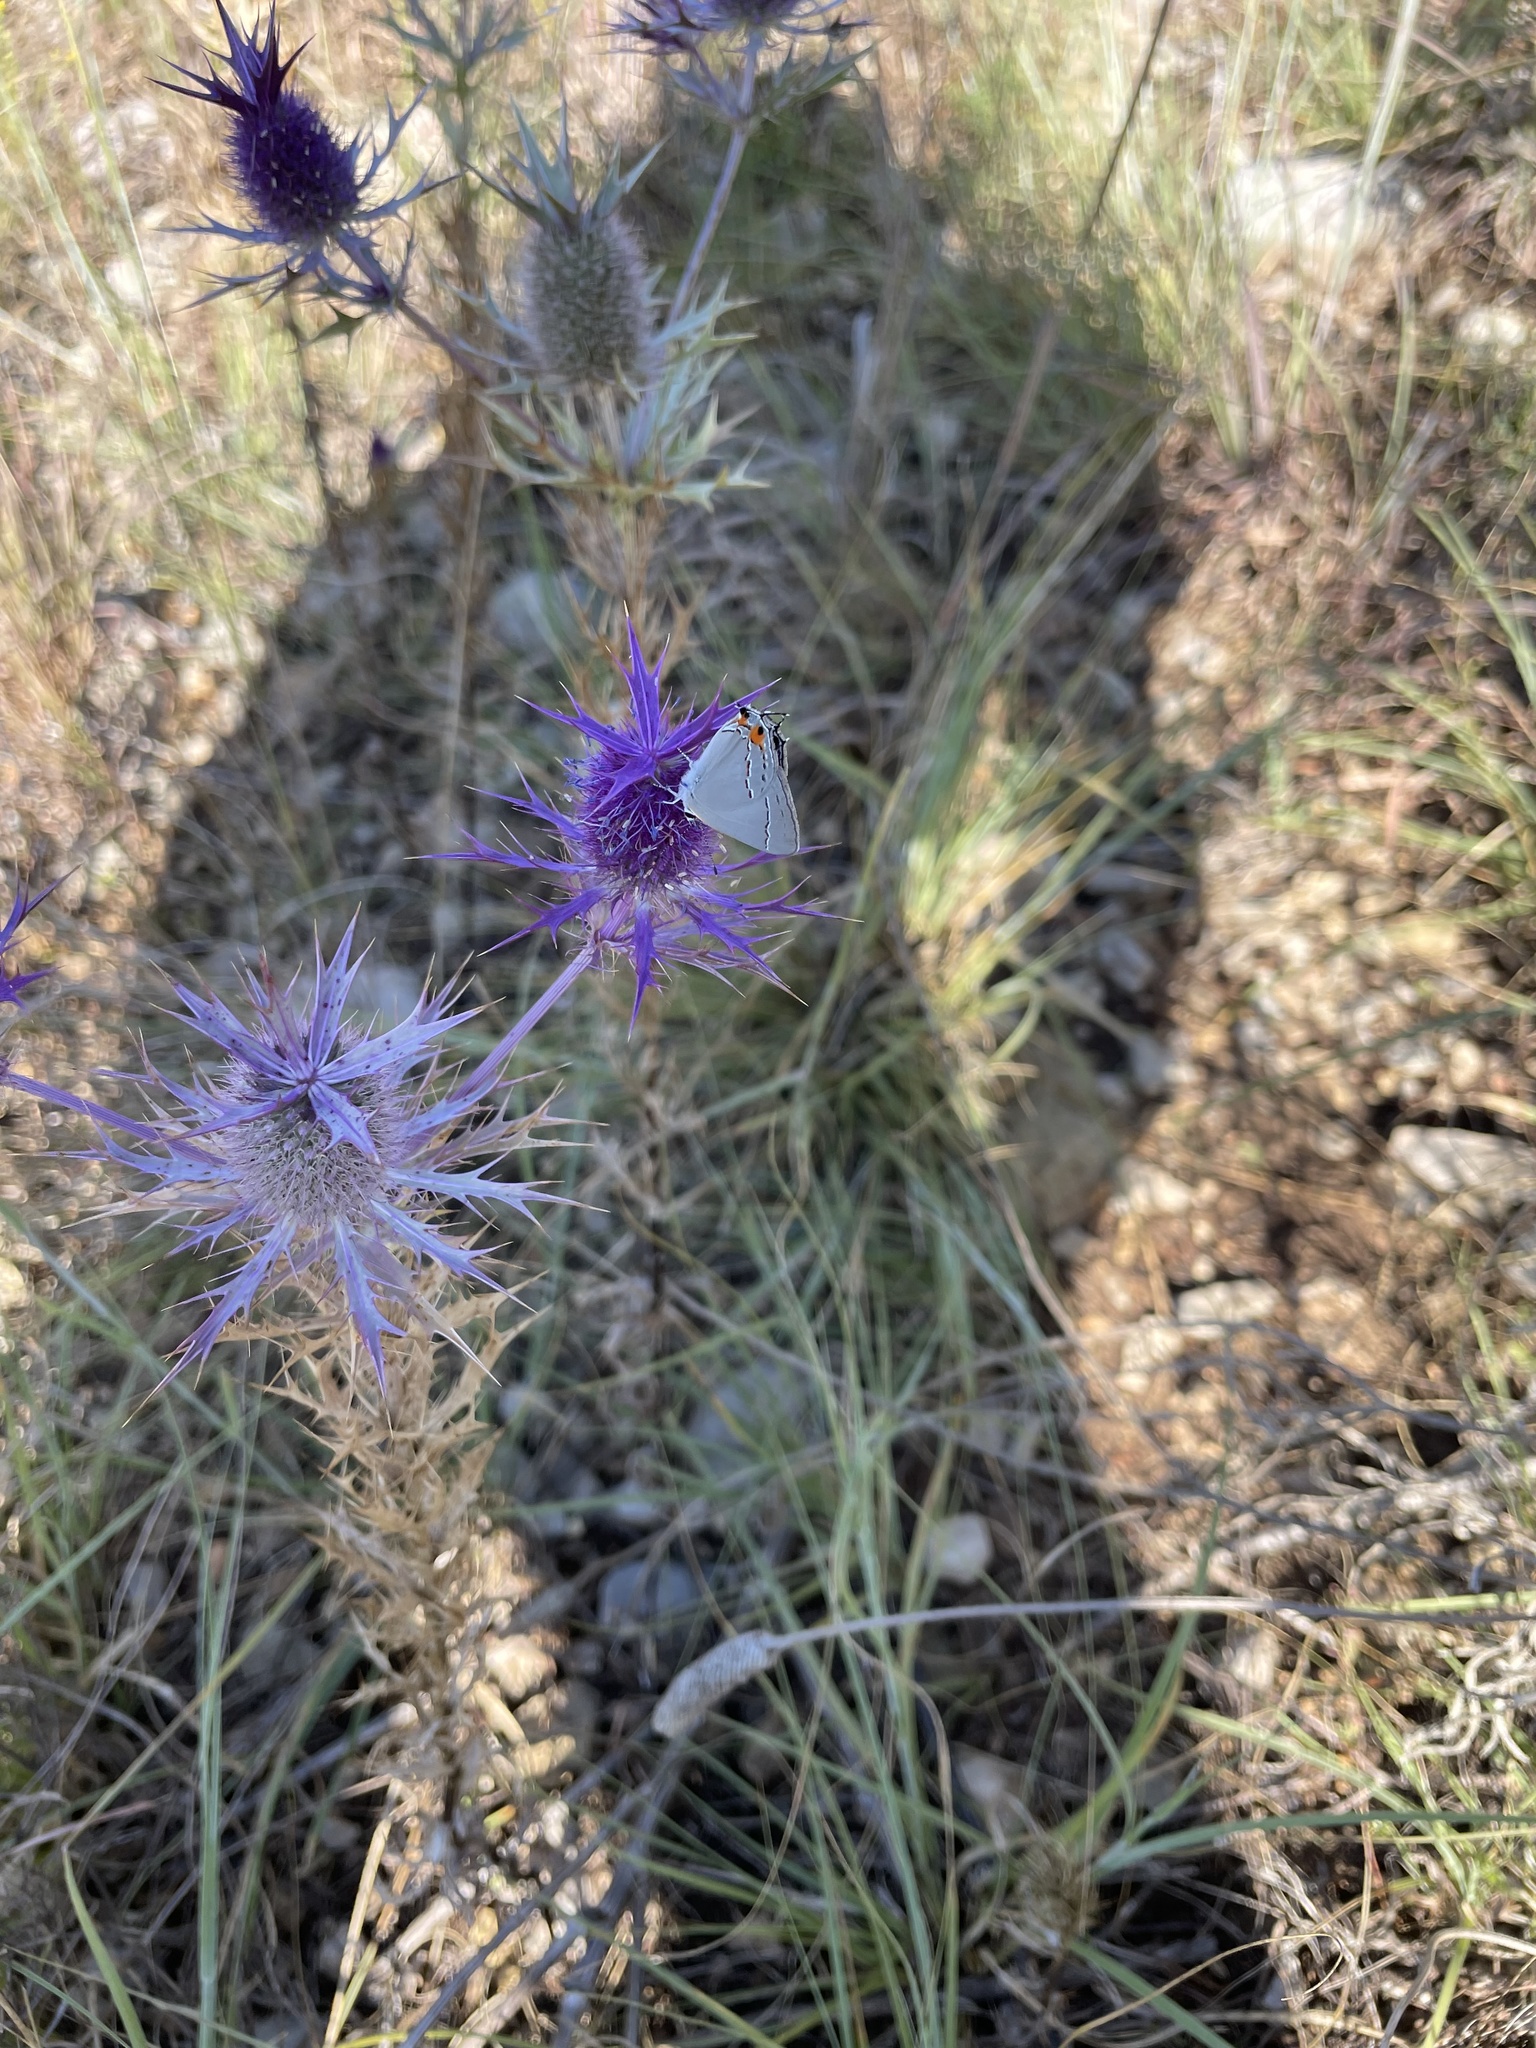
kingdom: Animalia
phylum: Arthropoda
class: Insecta
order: Lepidoptera
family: Lycaenidae
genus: Strymon
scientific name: Strymon melinus
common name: Gray hairstreak
